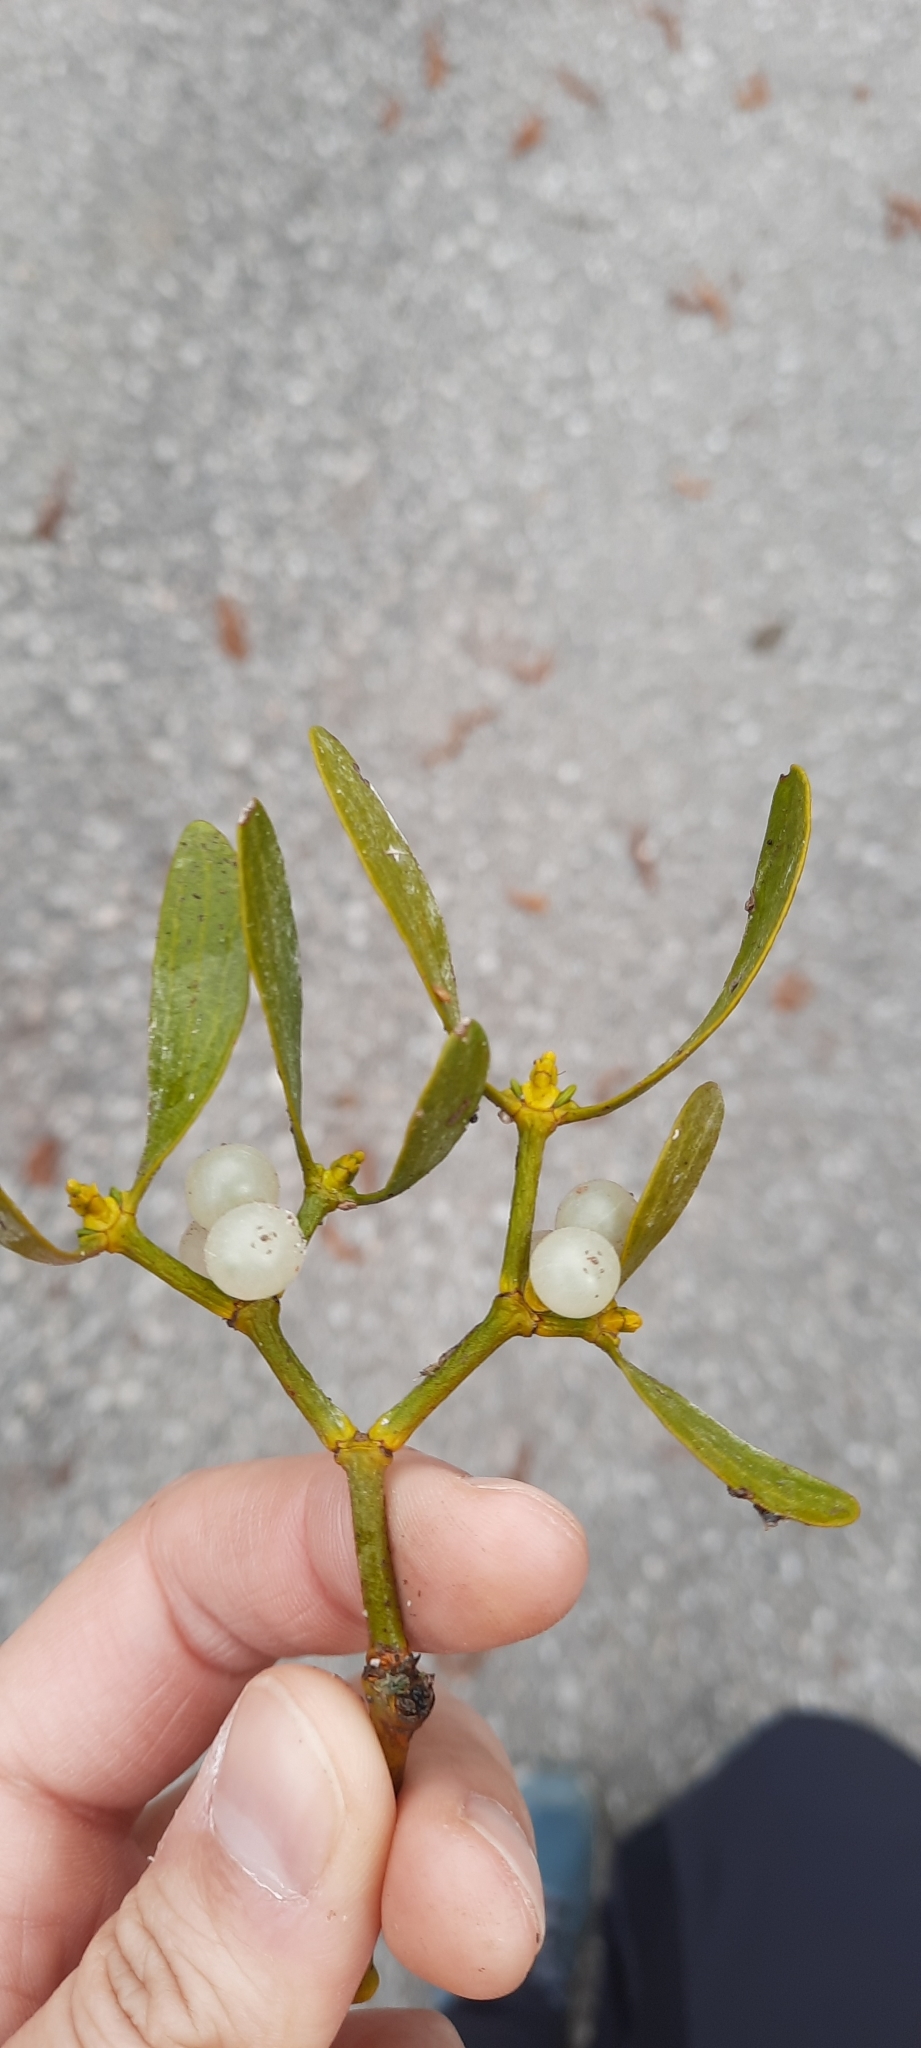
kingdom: Plantae
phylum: Tracheophyta
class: Magnoliopsida
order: Santalales
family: Viscaceae
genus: Viscum
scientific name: Viscum album
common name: Mistletoe
